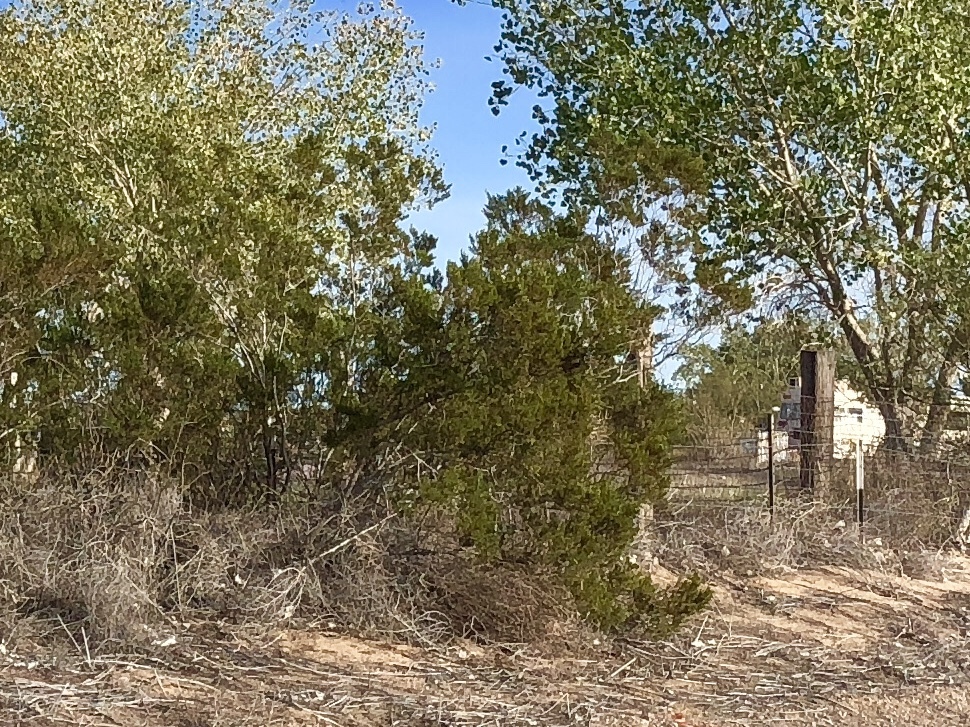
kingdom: Plantae
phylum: Tracheophyta
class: Magnoliopsida
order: Zygophyllales
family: Zygophyllaceae
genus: Larrea
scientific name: Larrea tridentata
